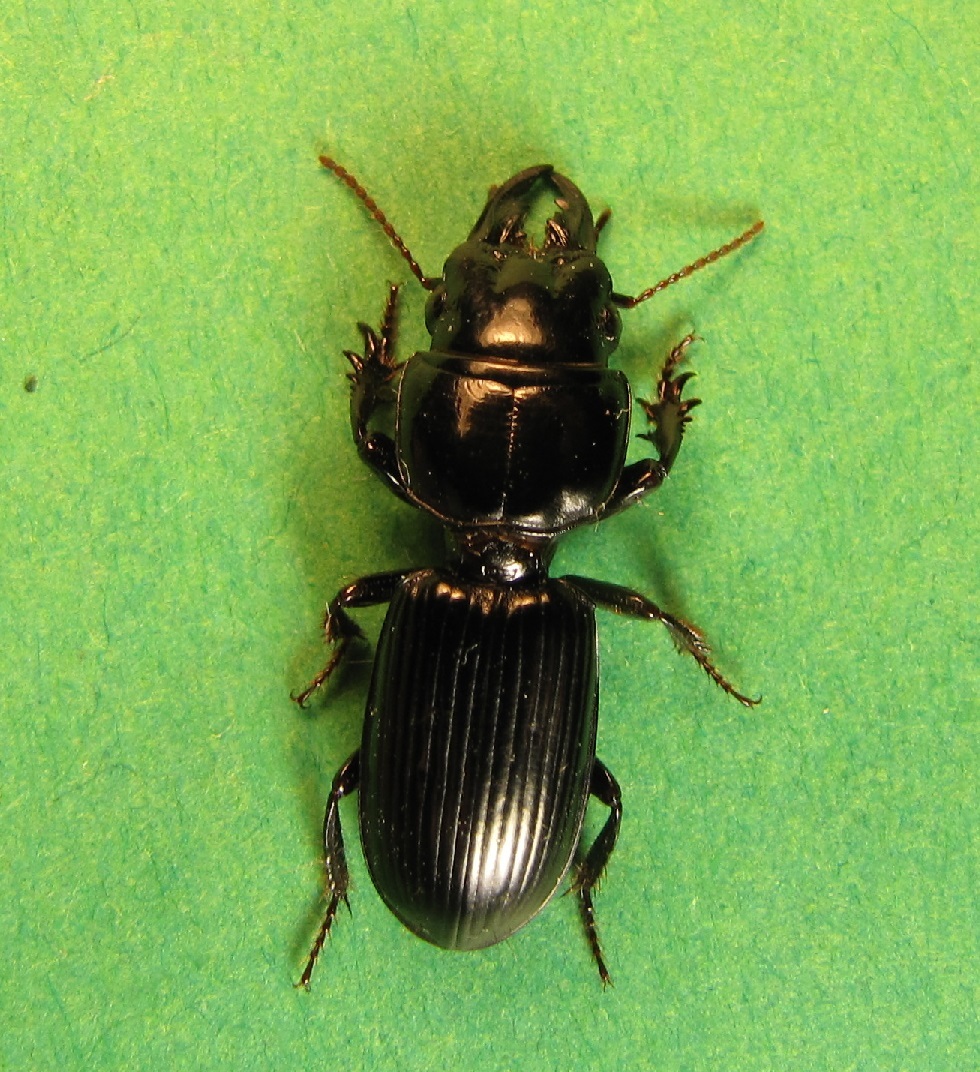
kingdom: Animalia
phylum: Arthropoda
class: Insecta
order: Coleoptera
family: Carabidae
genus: Scarites
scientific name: Scarites subterraneus
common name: Big-headed ground beetle
